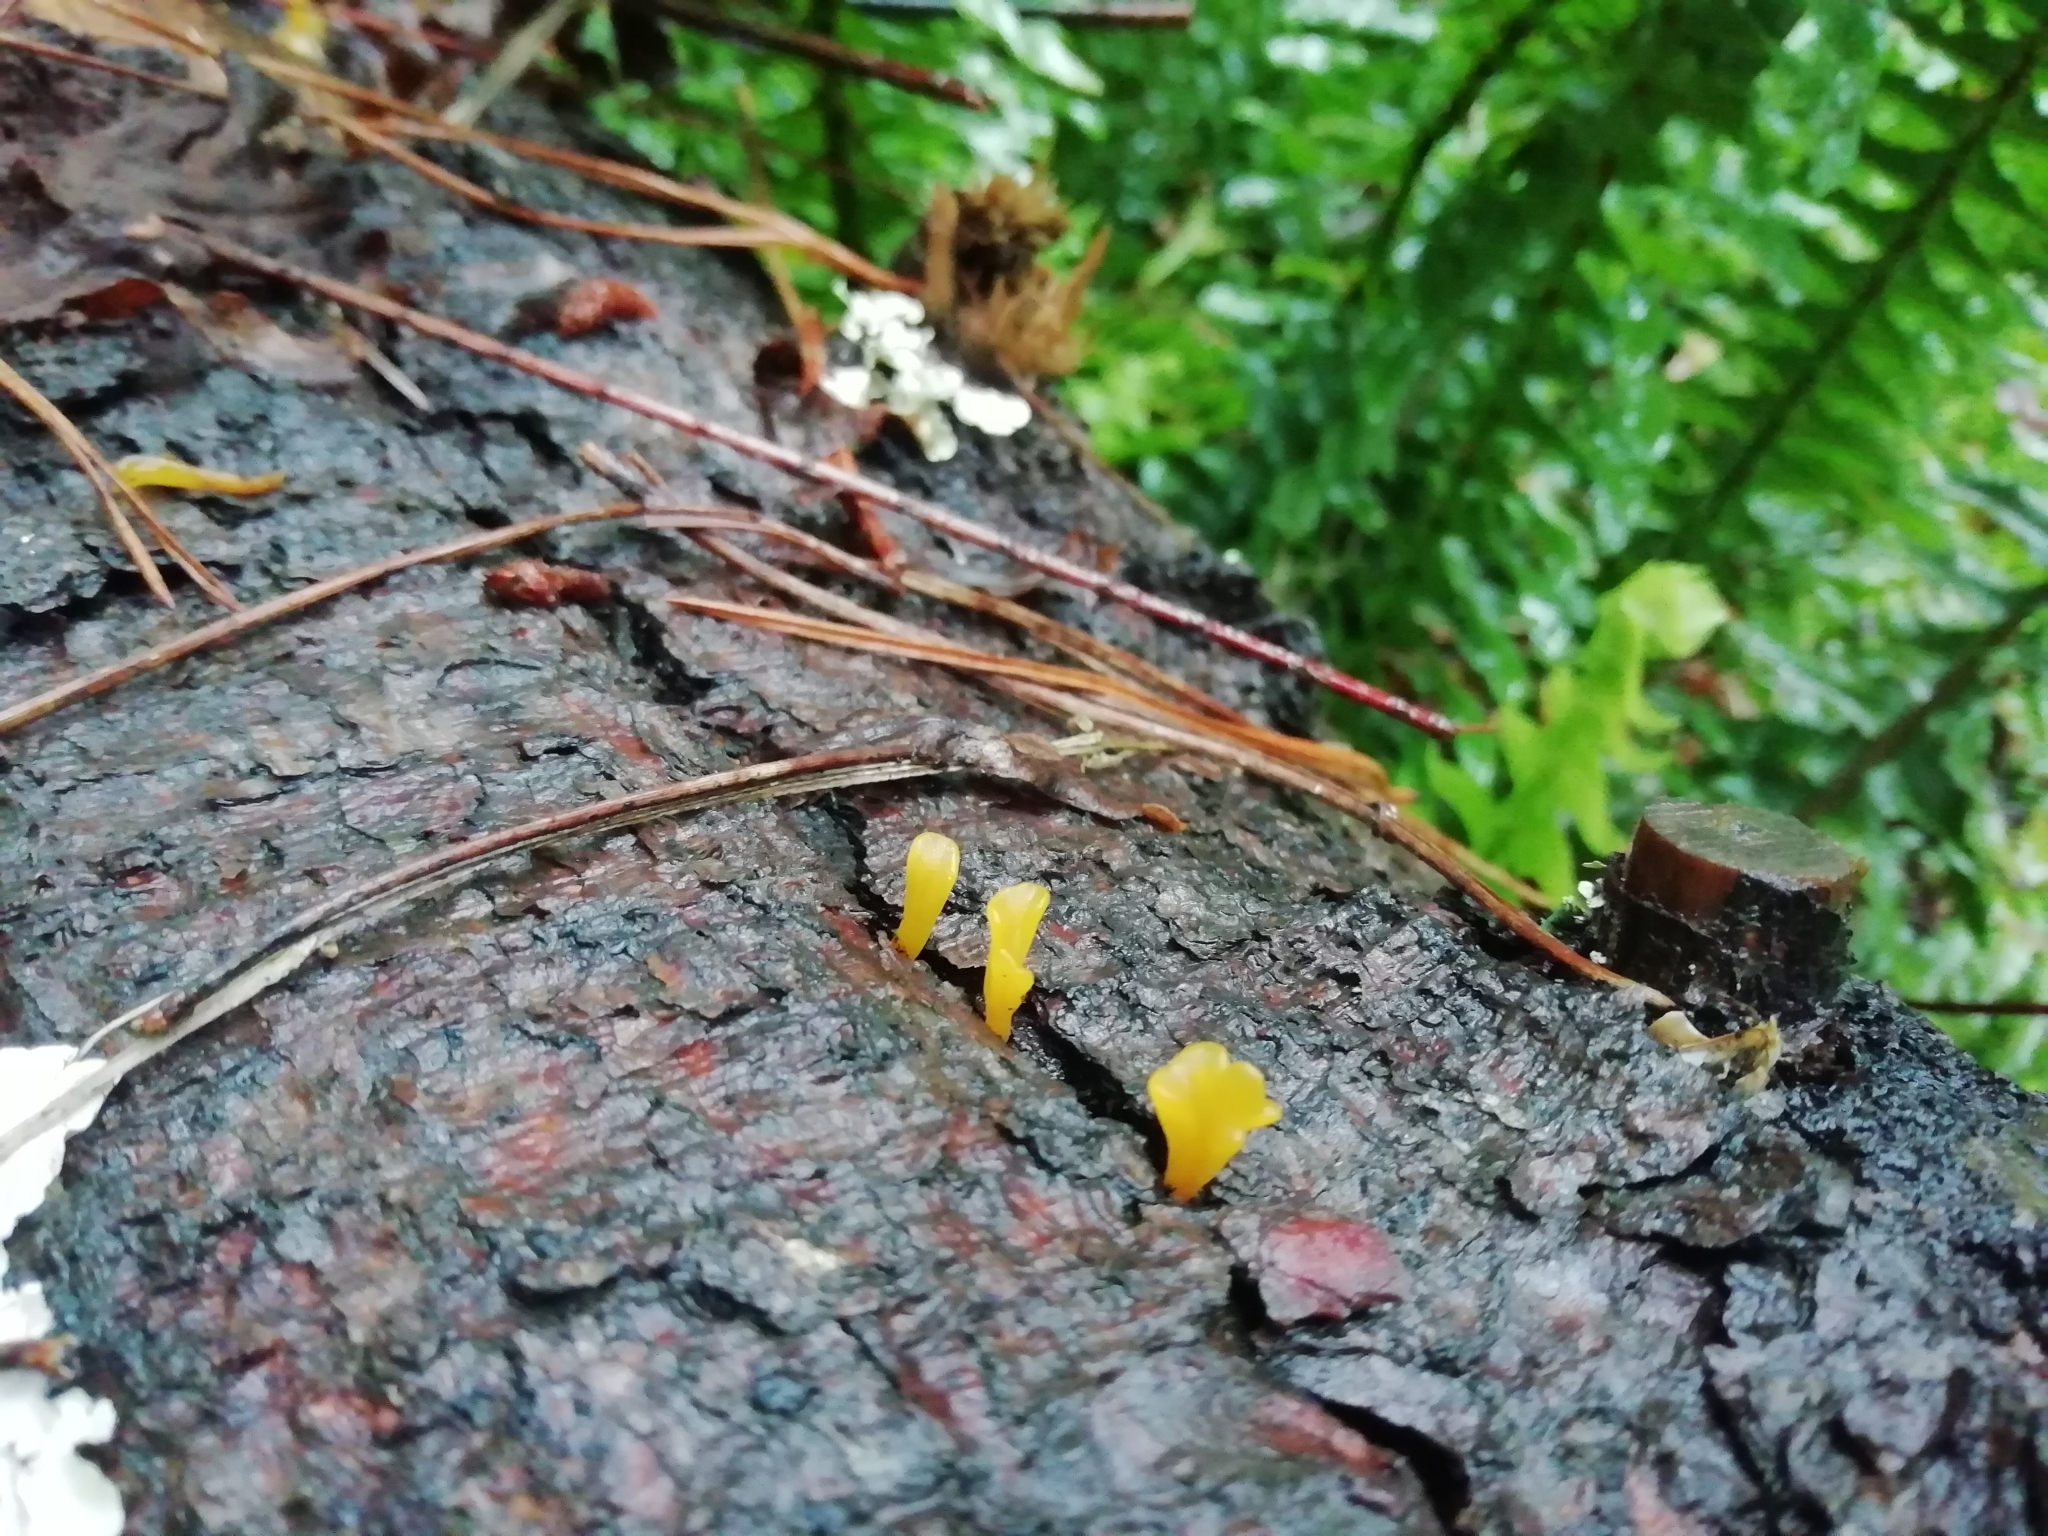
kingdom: Fungi
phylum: Basidiomycota
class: Dacrymycetes
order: Dacrymycetales
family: Dacrymycetaceae
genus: Dacrymyces
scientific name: Dacrymyces spathularius
